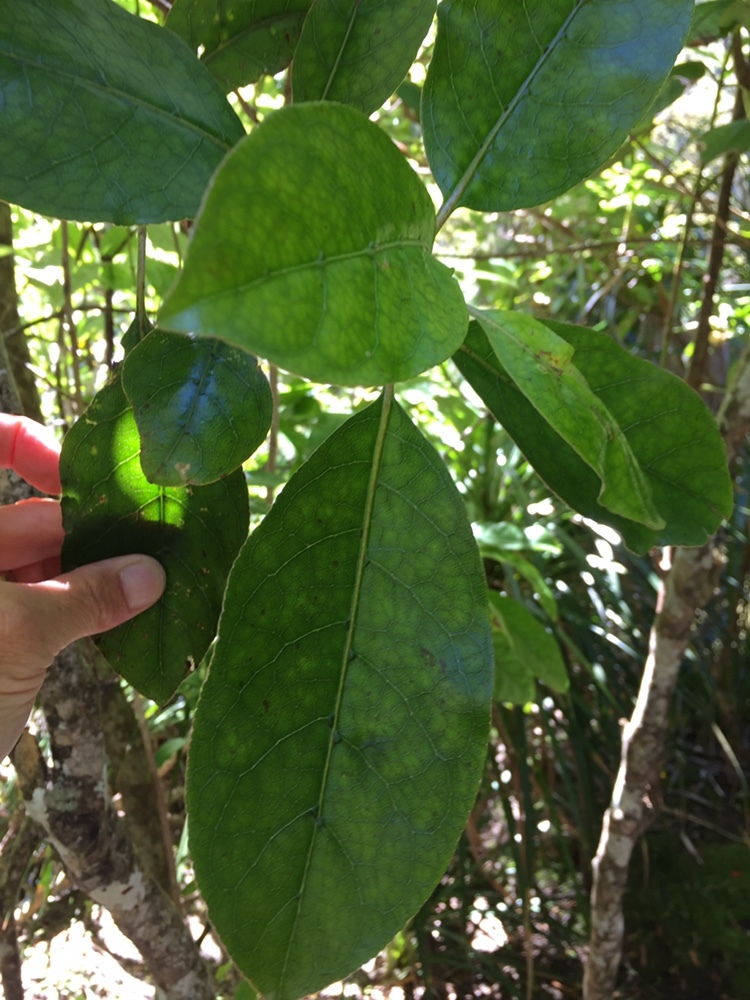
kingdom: Plantae
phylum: Tracheophyta
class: Magnoliopsida
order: Gentianales
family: Rubiaceae
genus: Coprosma
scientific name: Coprosma autumnalis
